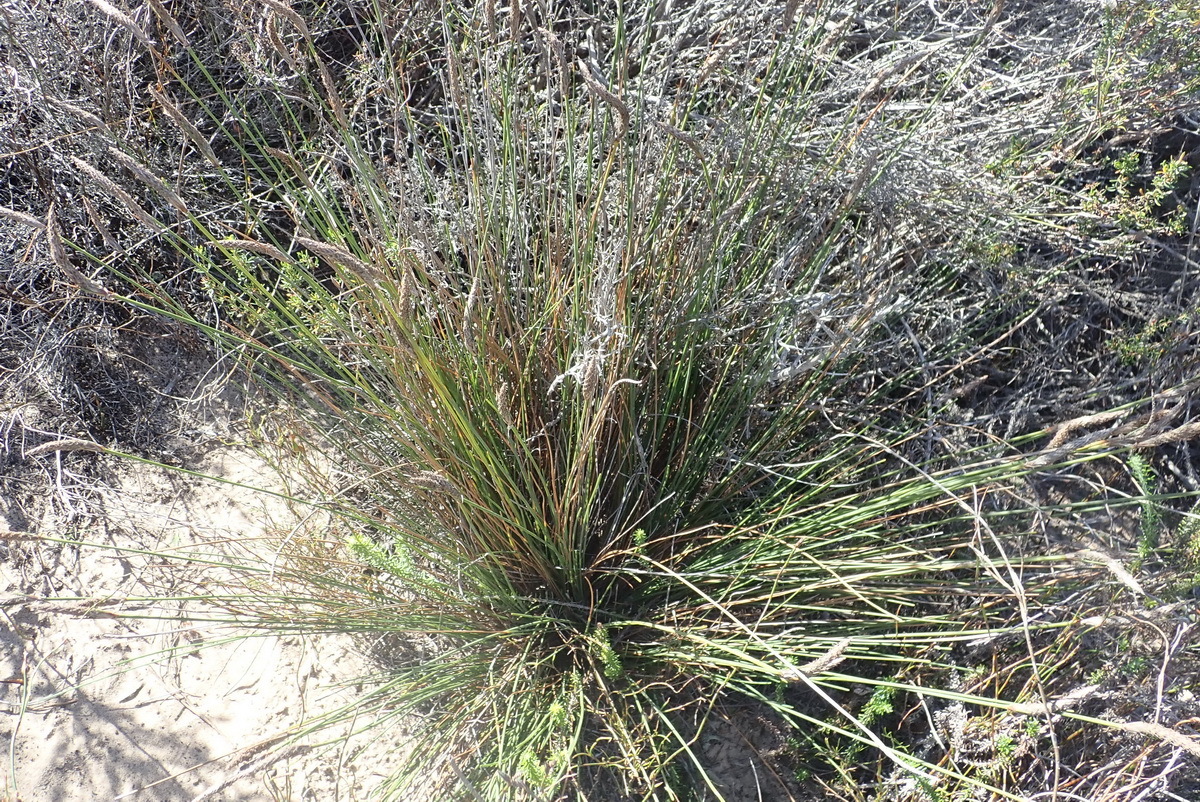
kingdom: Plantae
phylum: Tracheophyta
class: Liliopsida
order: Poales
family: Cyperaceae
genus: Ficinia
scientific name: Ficinia deusta
